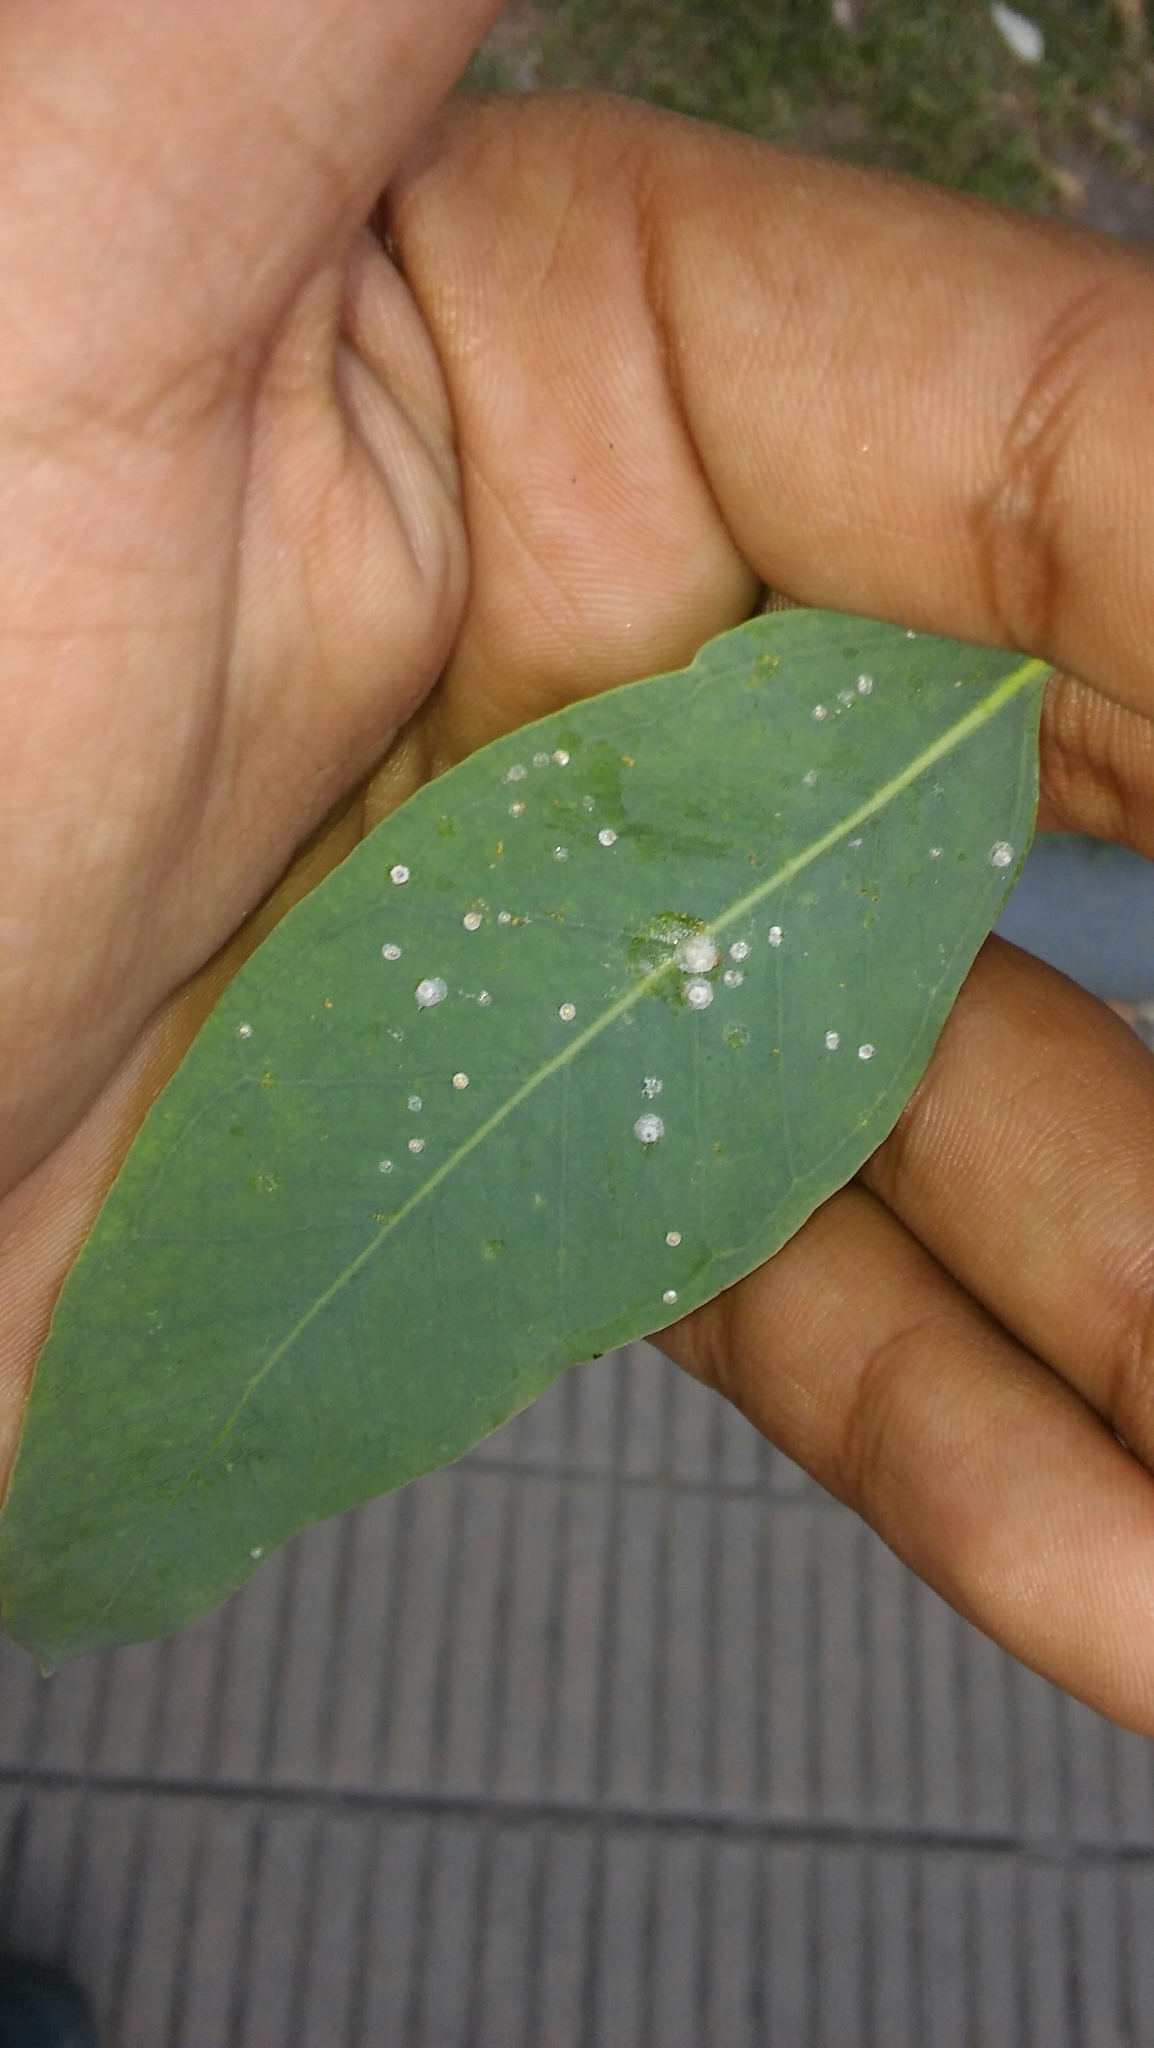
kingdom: Animalia
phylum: Arthropoda
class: Insecta
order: Hemiptera
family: Aphalaridae
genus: Glycaspis
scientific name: Glycaspis brimblecombei
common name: Red gum lerp psyllid
